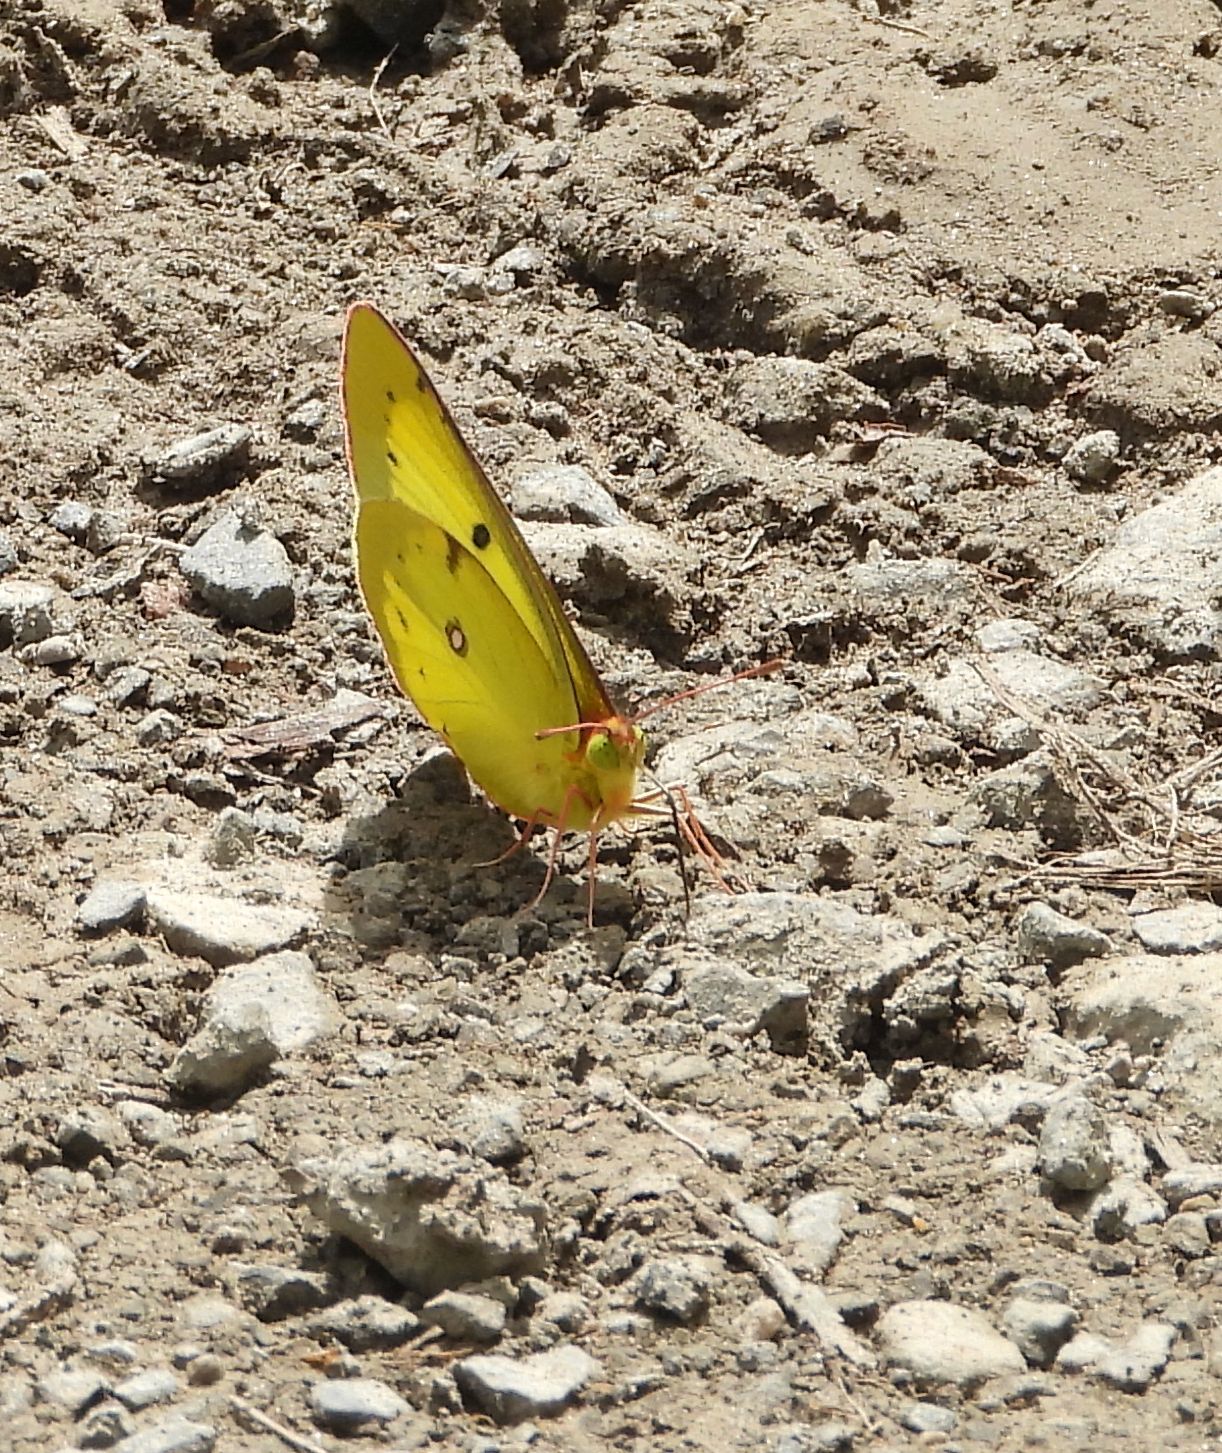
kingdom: Animalia
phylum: Arthropoda
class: Insecta
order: Lepidoptera
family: Pieridae
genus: Colias
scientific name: Colias philodice
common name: Clouded sulphur
